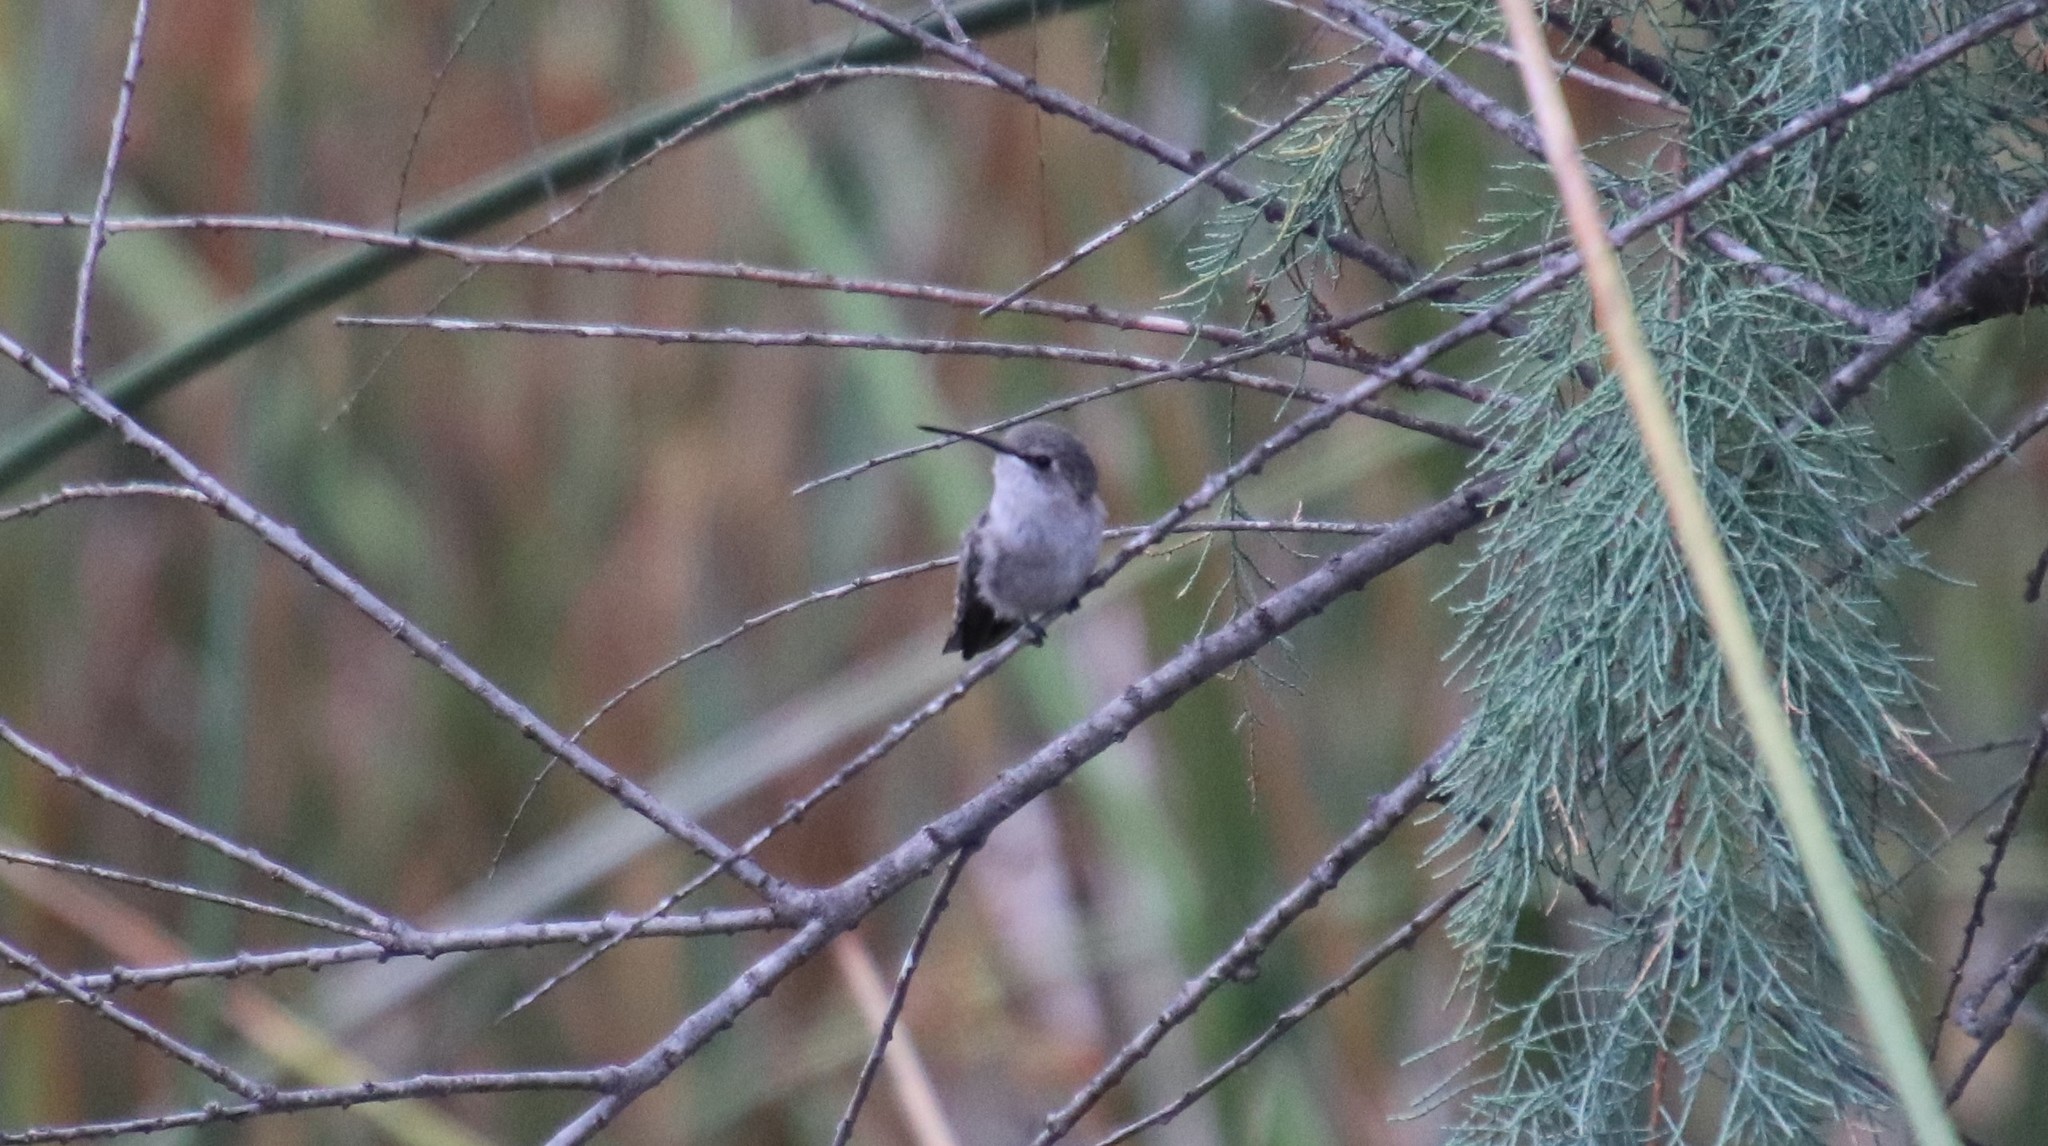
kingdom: Animalia
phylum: Chordata
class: Aves
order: Apodiformes
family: Trochilidae
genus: Calypte
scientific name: Calypte costae
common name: Costa's hummingbird
